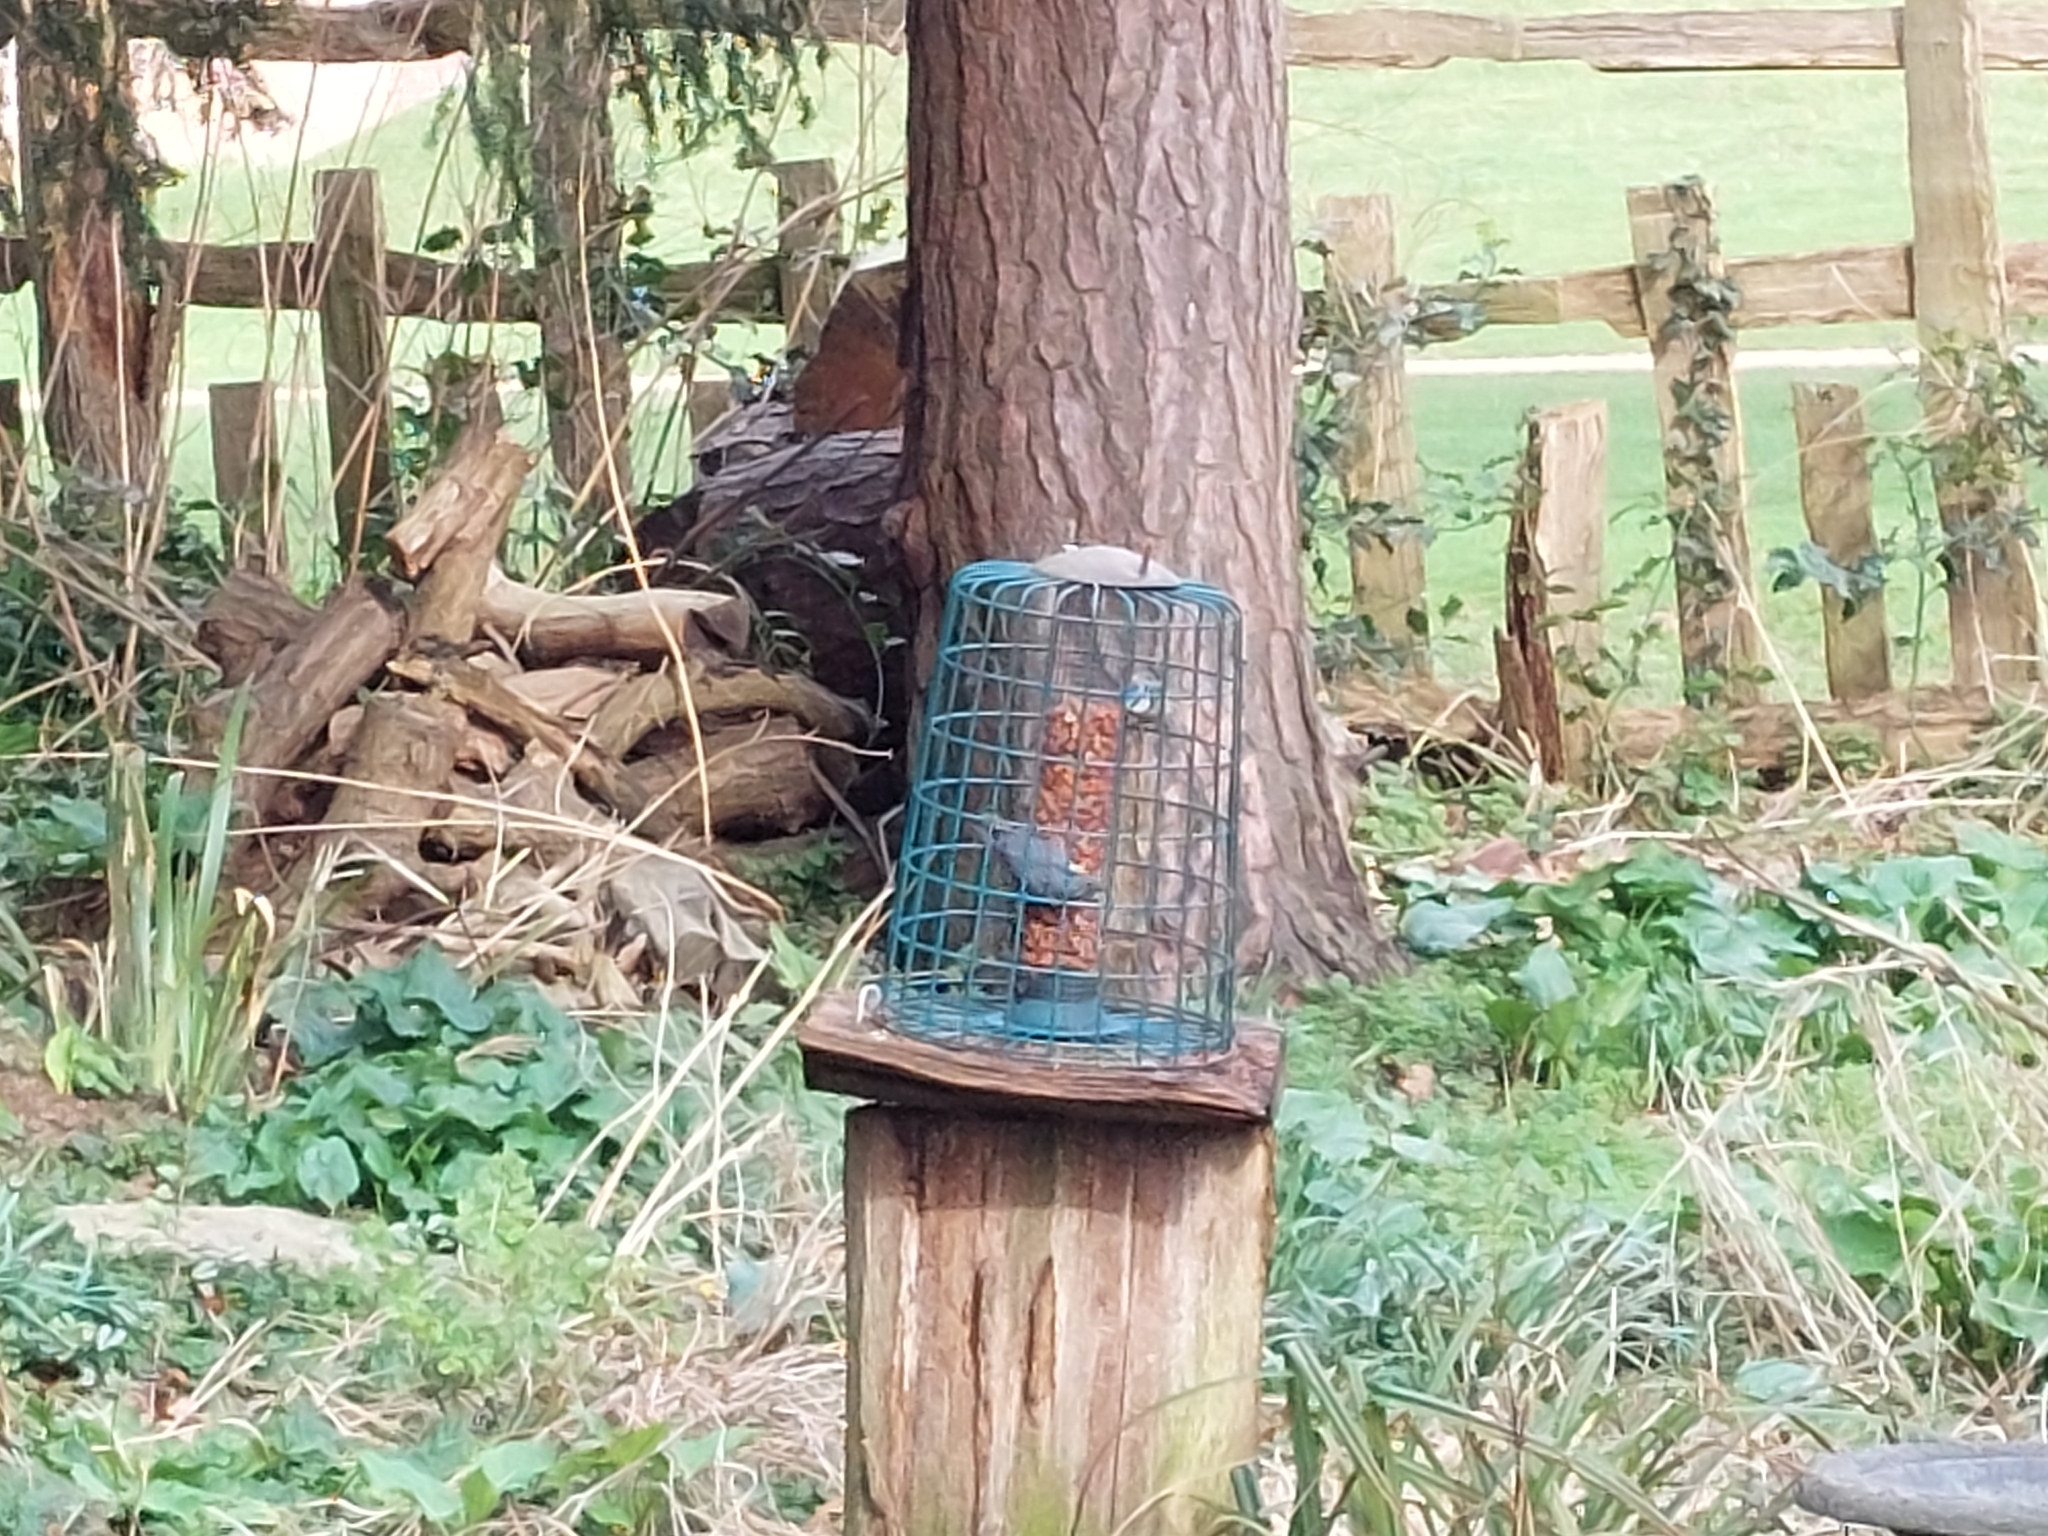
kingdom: Animalia
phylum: Chordata
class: Aves
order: Passeriformes
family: Sittidae
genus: Sitta
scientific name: Sitta europaea
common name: Eurasian nuthatch
